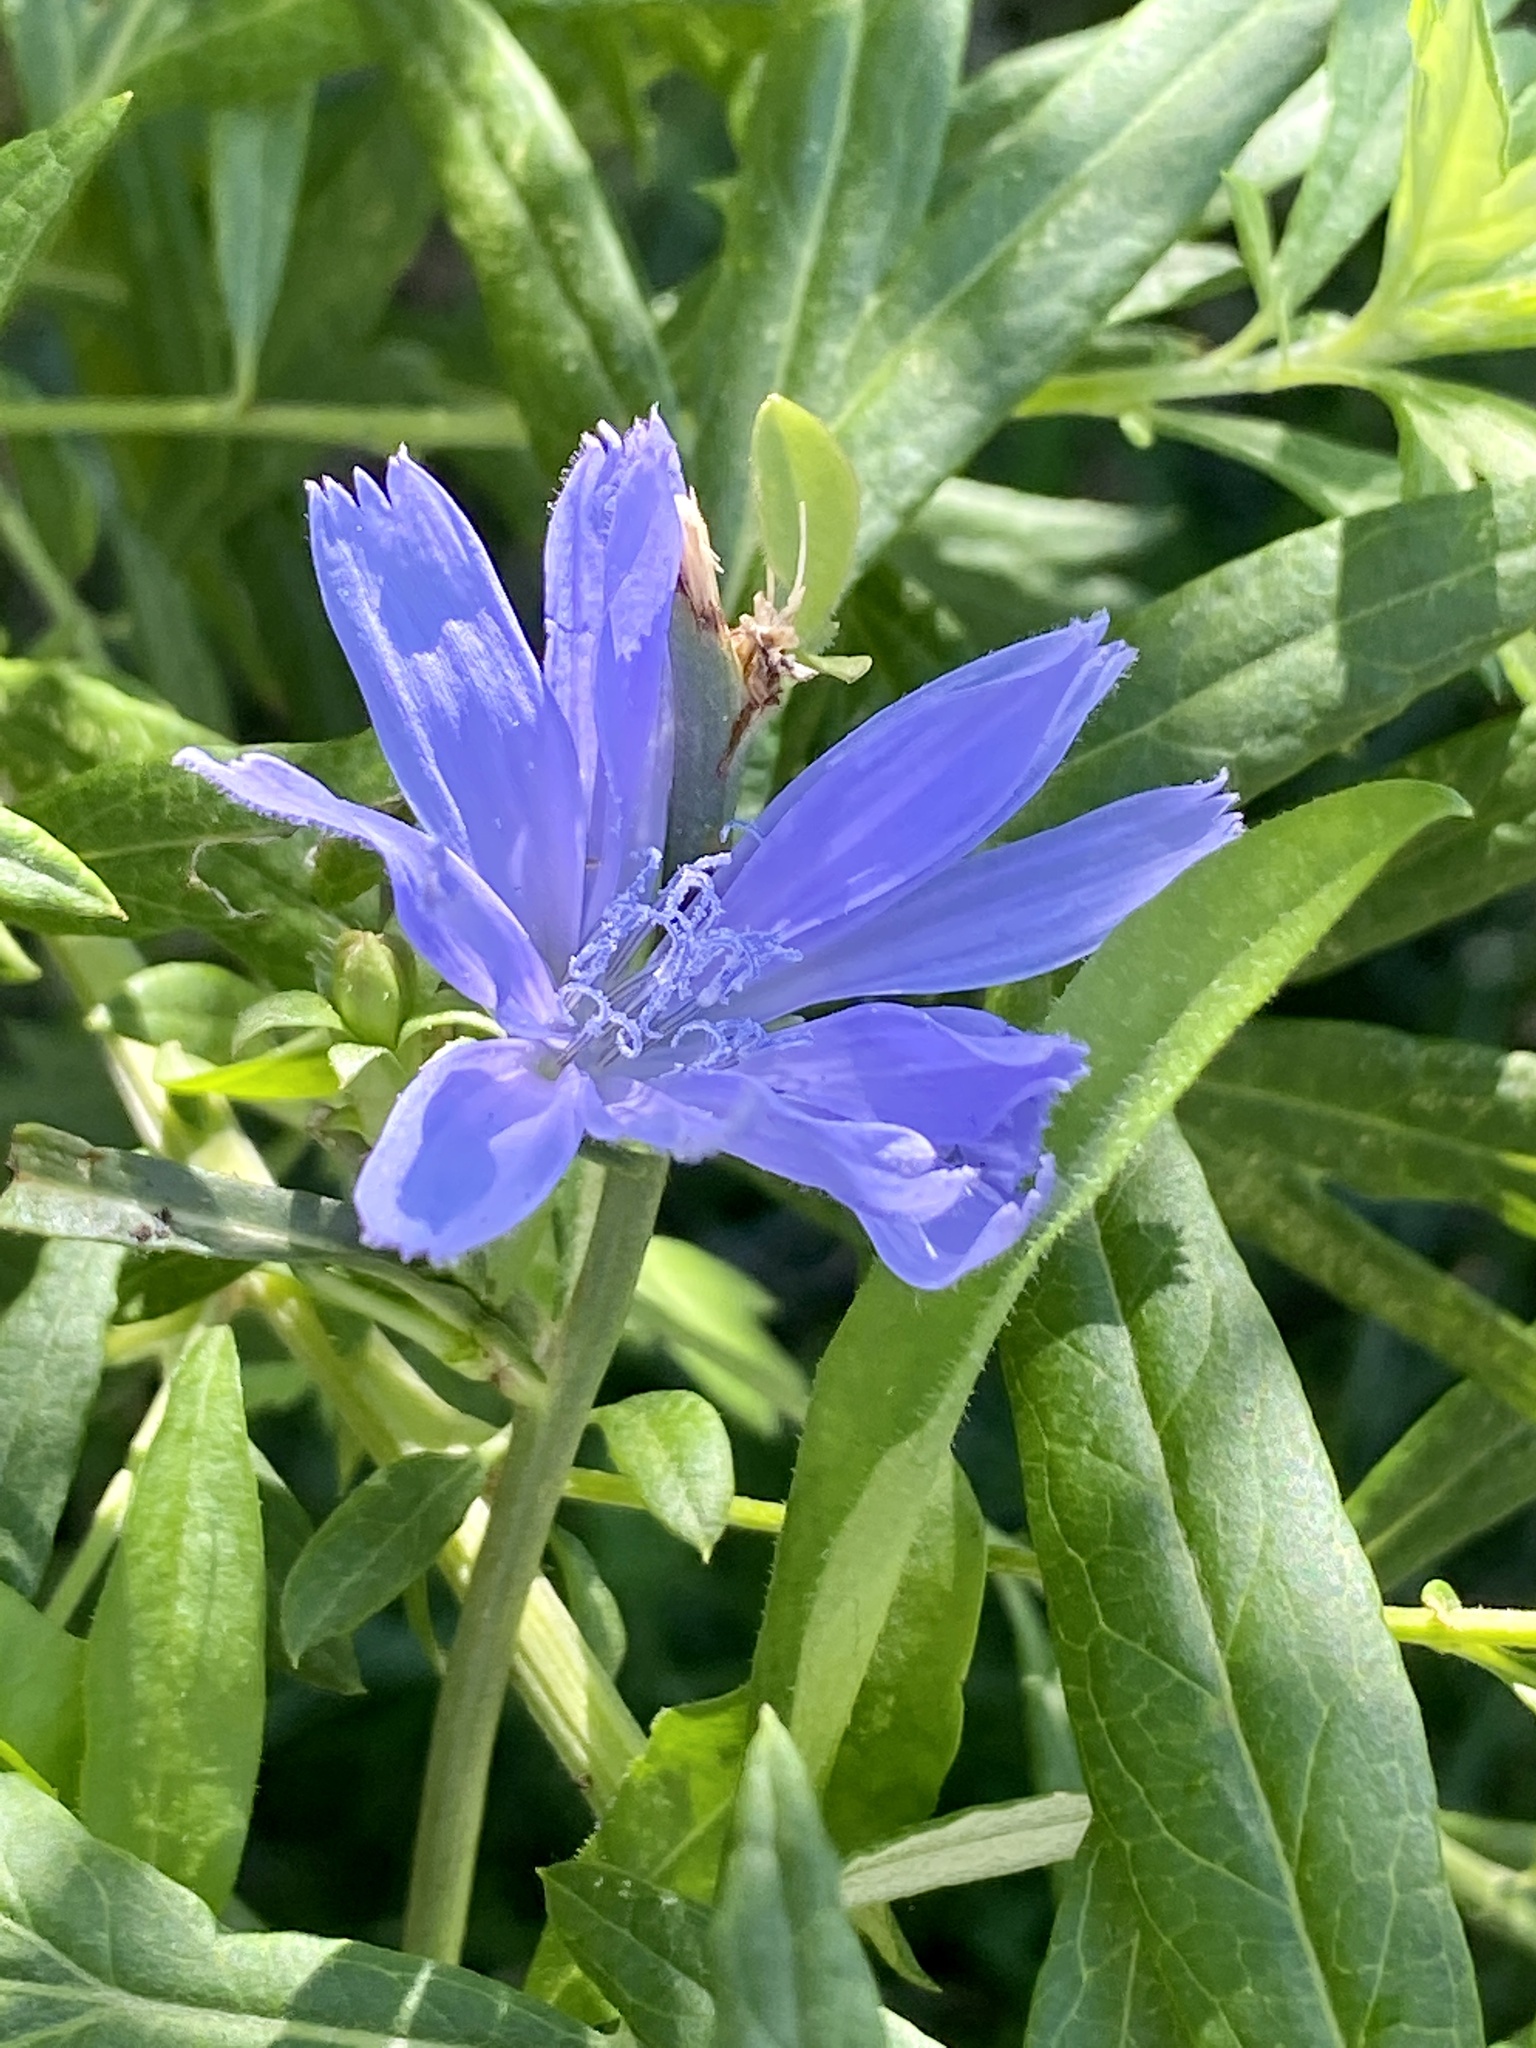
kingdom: Plantae
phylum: Tracheophyta
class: Magnoliopsida
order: Asterales
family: Asteraceae
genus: Cichorium
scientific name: Cichorium intybus
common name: Chicory
